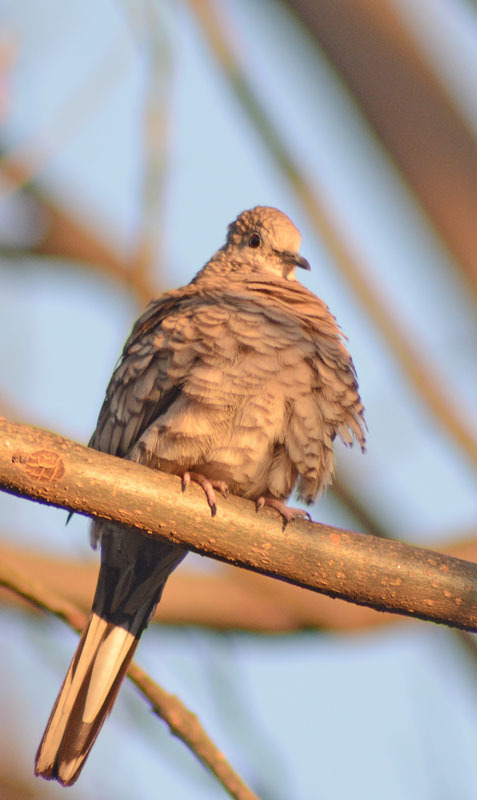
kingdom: Animalia
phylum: Chordata
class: Aves
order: Columbiformes
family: Columbidae
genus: Columbina
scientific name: Columbina inca
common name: Inca dove
